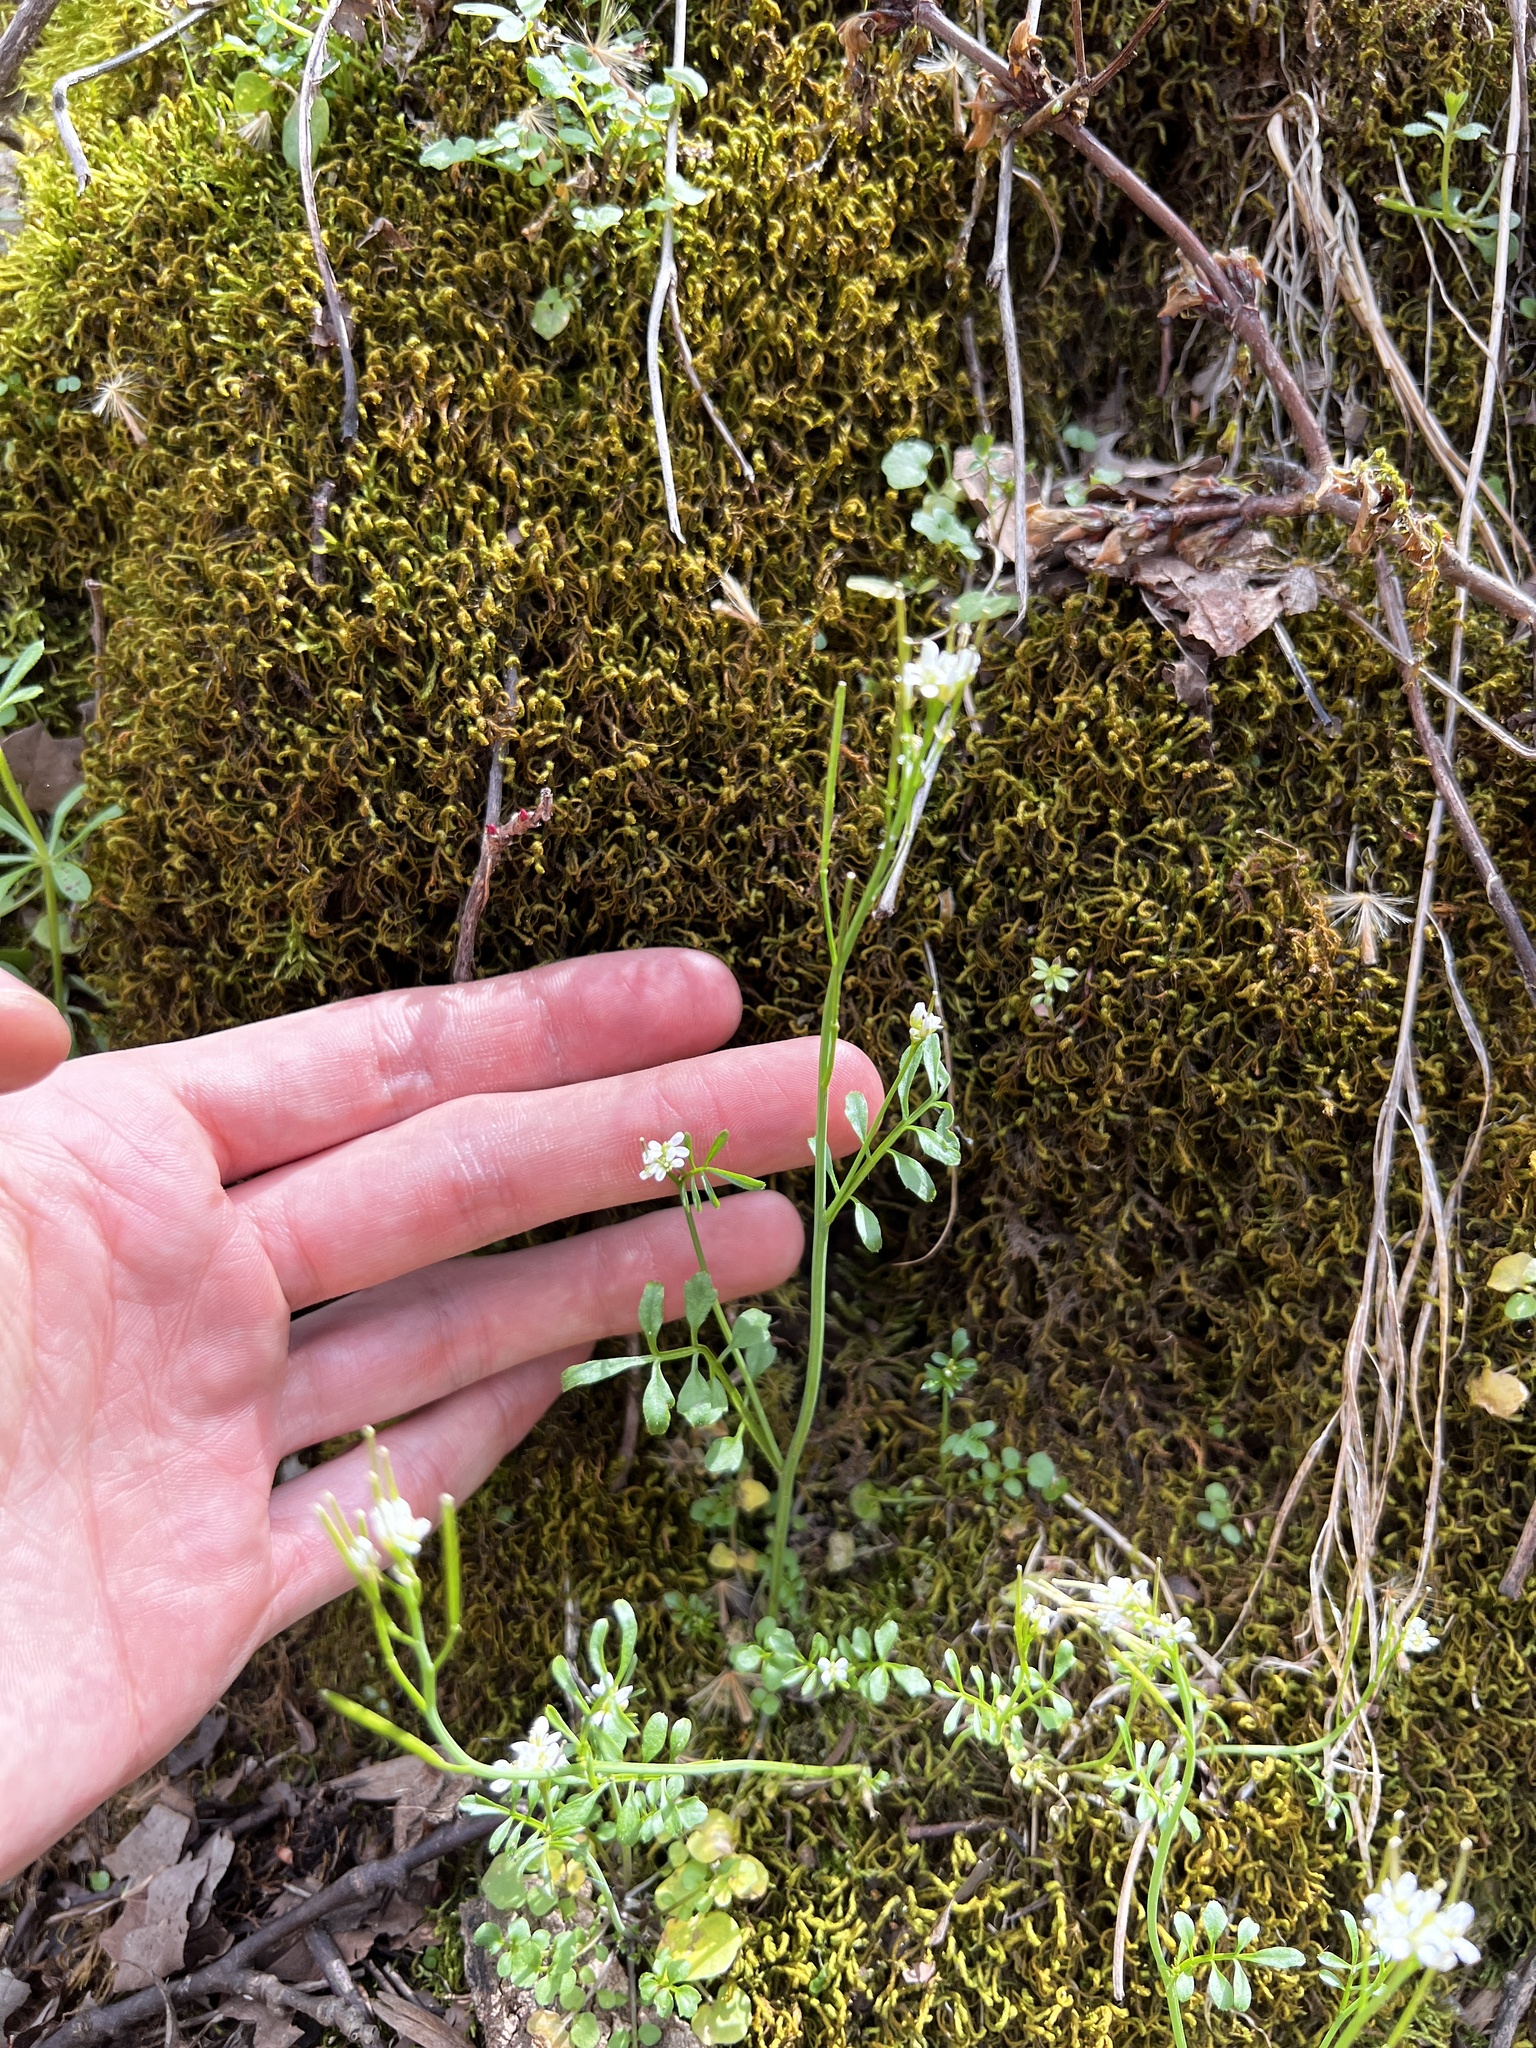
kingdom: Plantae
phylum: Tracheophyta
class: Magnoliopsida
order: Brassicales
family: Brassicaceae
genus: Cardamine
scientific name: Cardamine pensylvanica
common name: Pennsylvania bittercress
